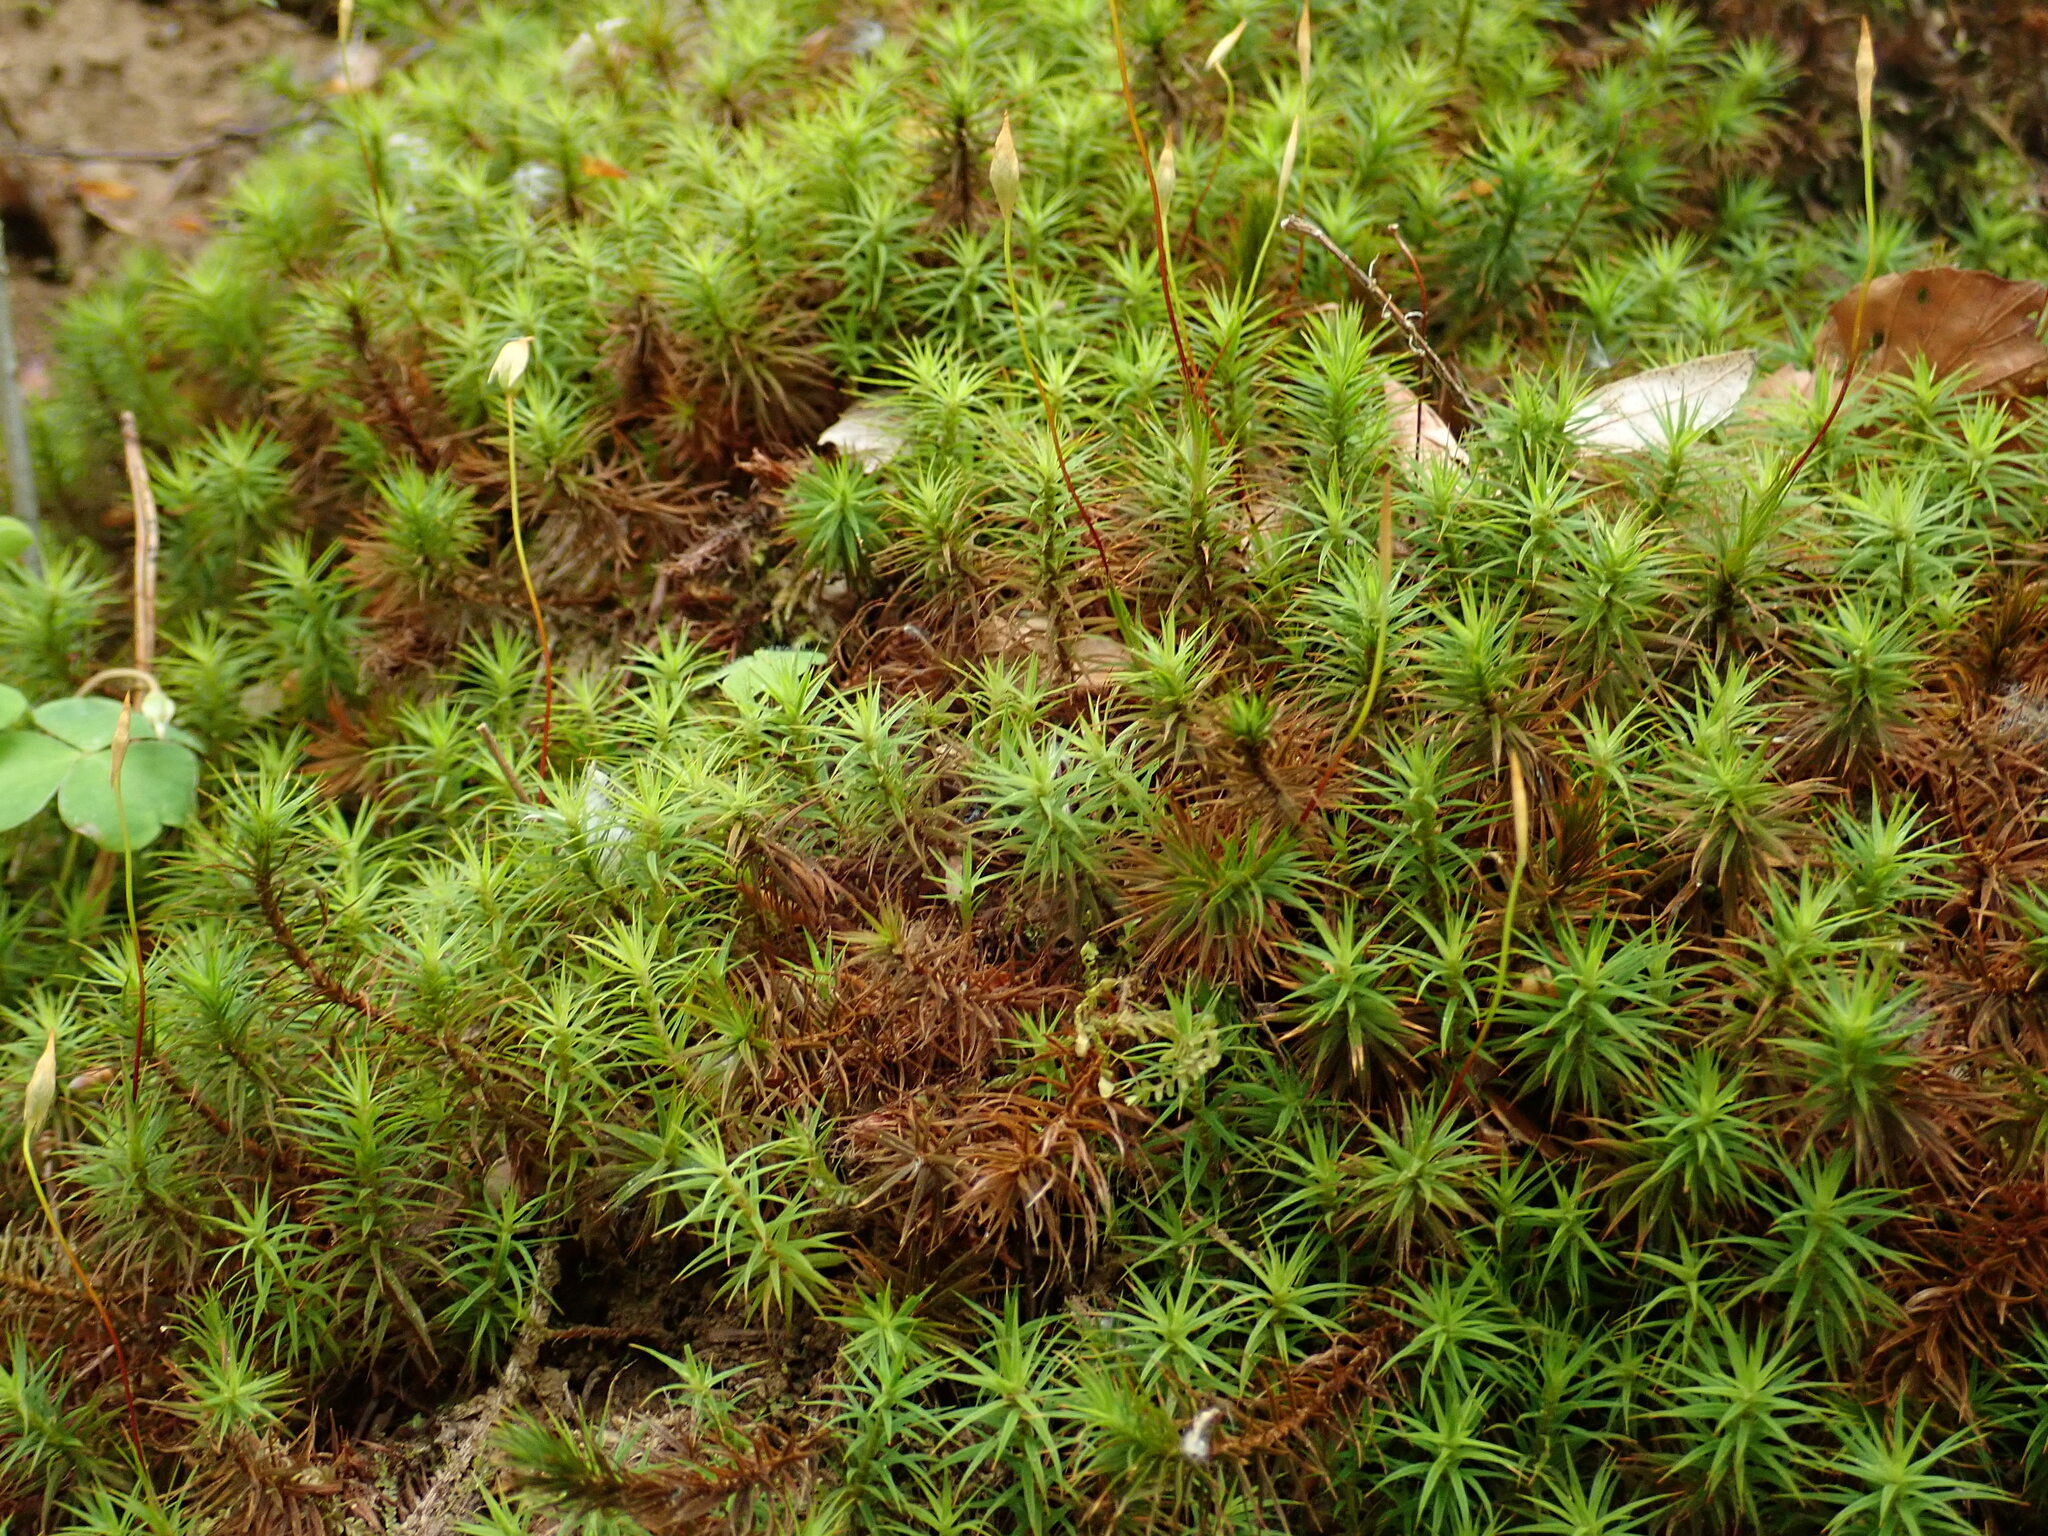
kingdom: Plantae
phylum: Bryophyta
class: Polytrichopsida
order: Polytrichales
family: Polytrichaceae
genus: Polytrichum
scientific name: Polytrichum formosum
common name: Bank haircap moss
